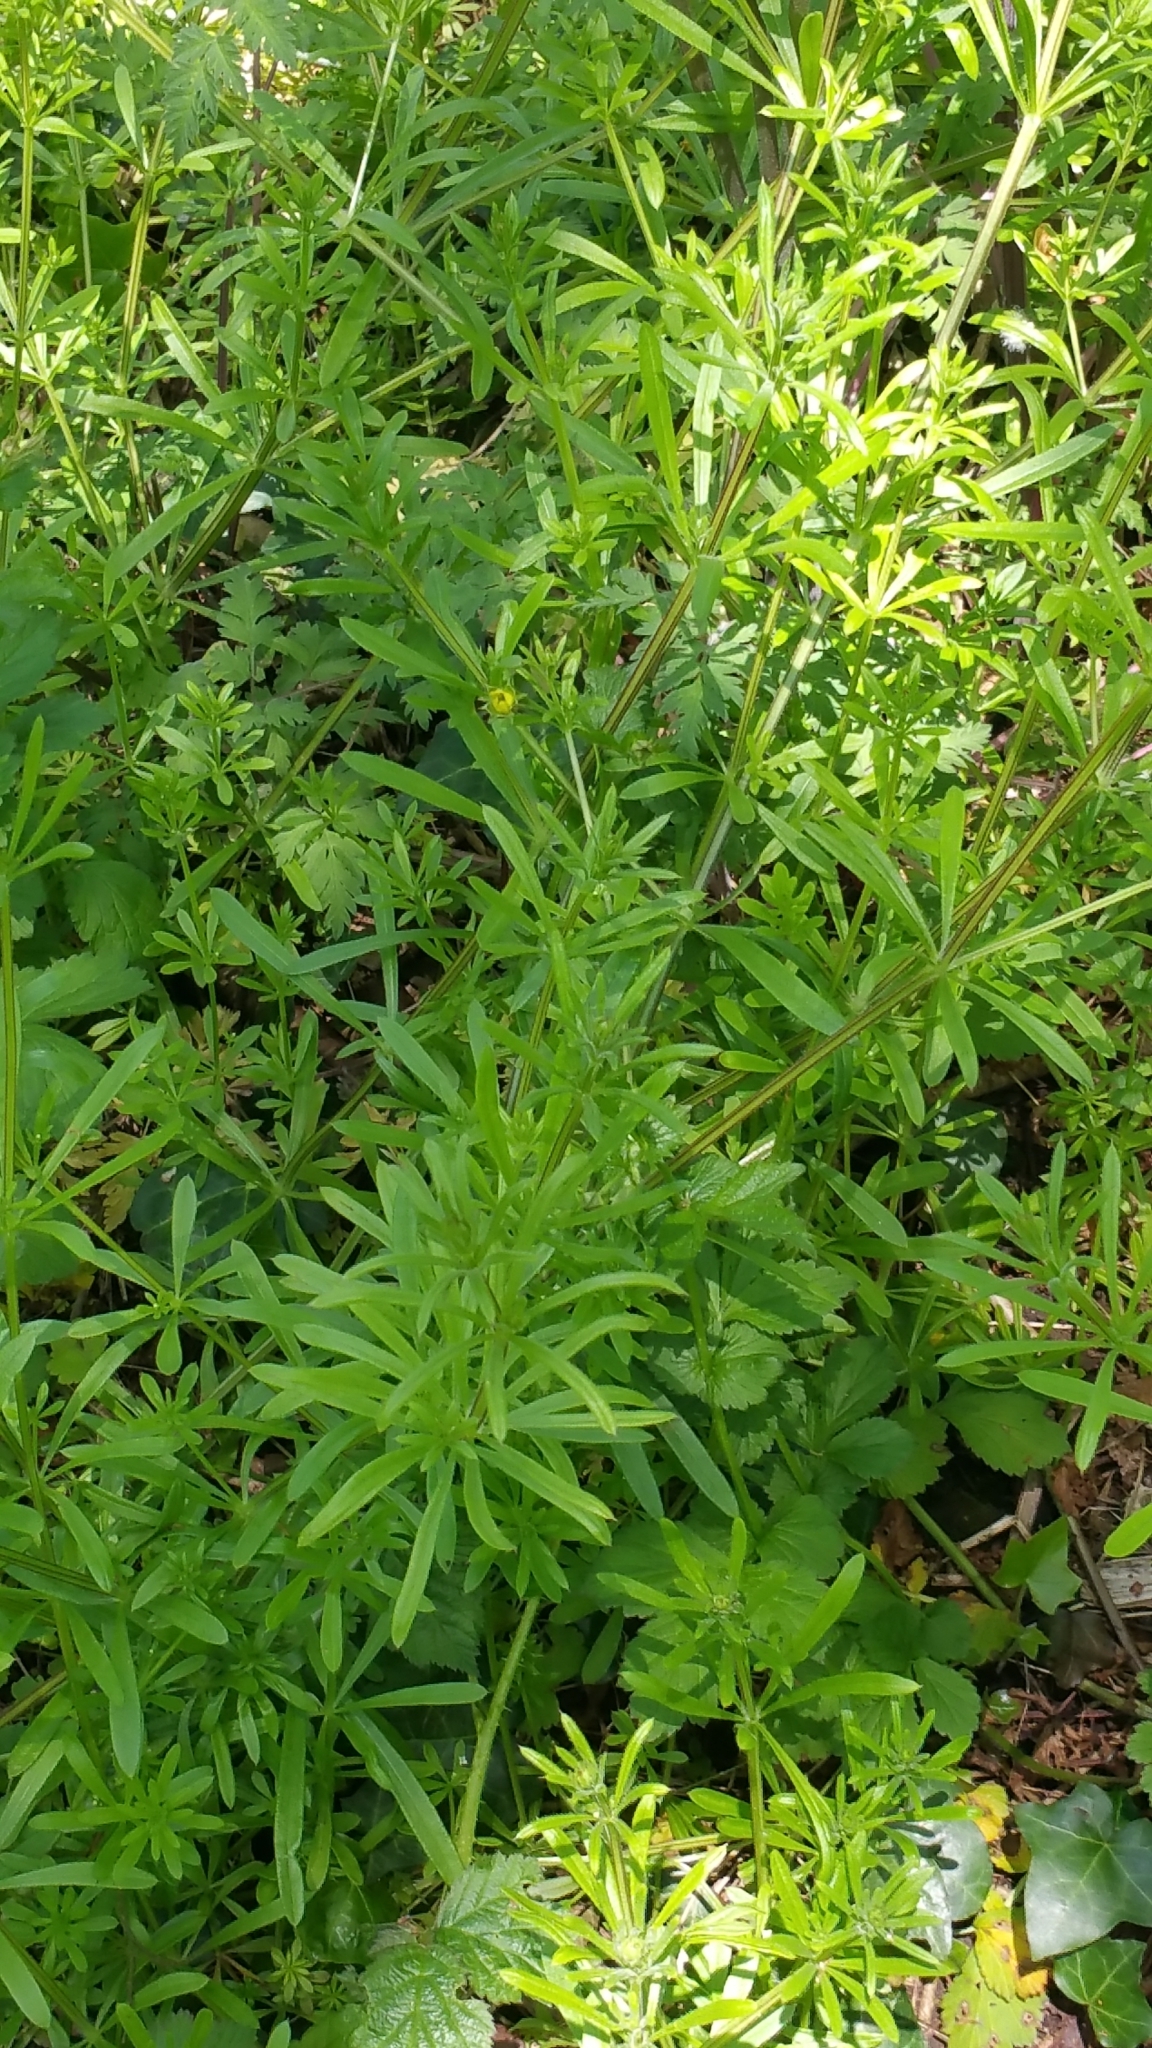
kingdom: Plantae
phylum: Tracheophyta
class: Magnoliopsida
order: Gentianales
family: Rubiaceae
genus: Galium
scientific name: Galium aparine
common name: Cleavers
